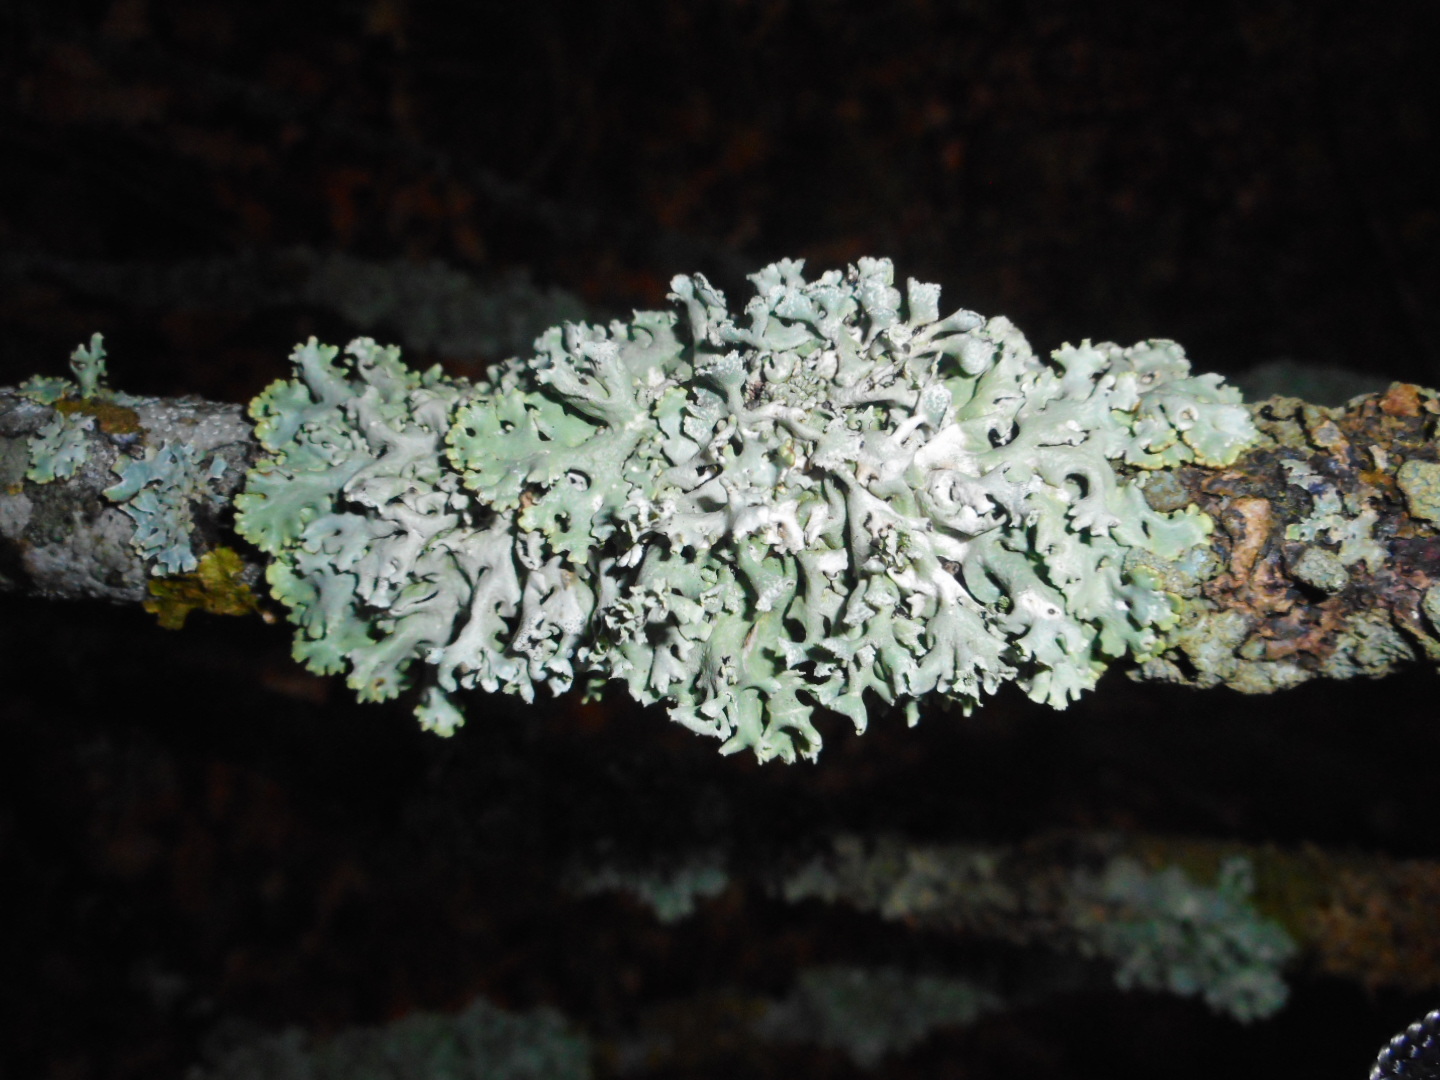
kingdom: Fungi
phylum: Ascomycota
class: Lecanoromycetes
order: Lecanorales
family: Parmeliaceae
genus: Hypogymnia
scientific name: Hypogymnia physodes
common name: Dark crottle
